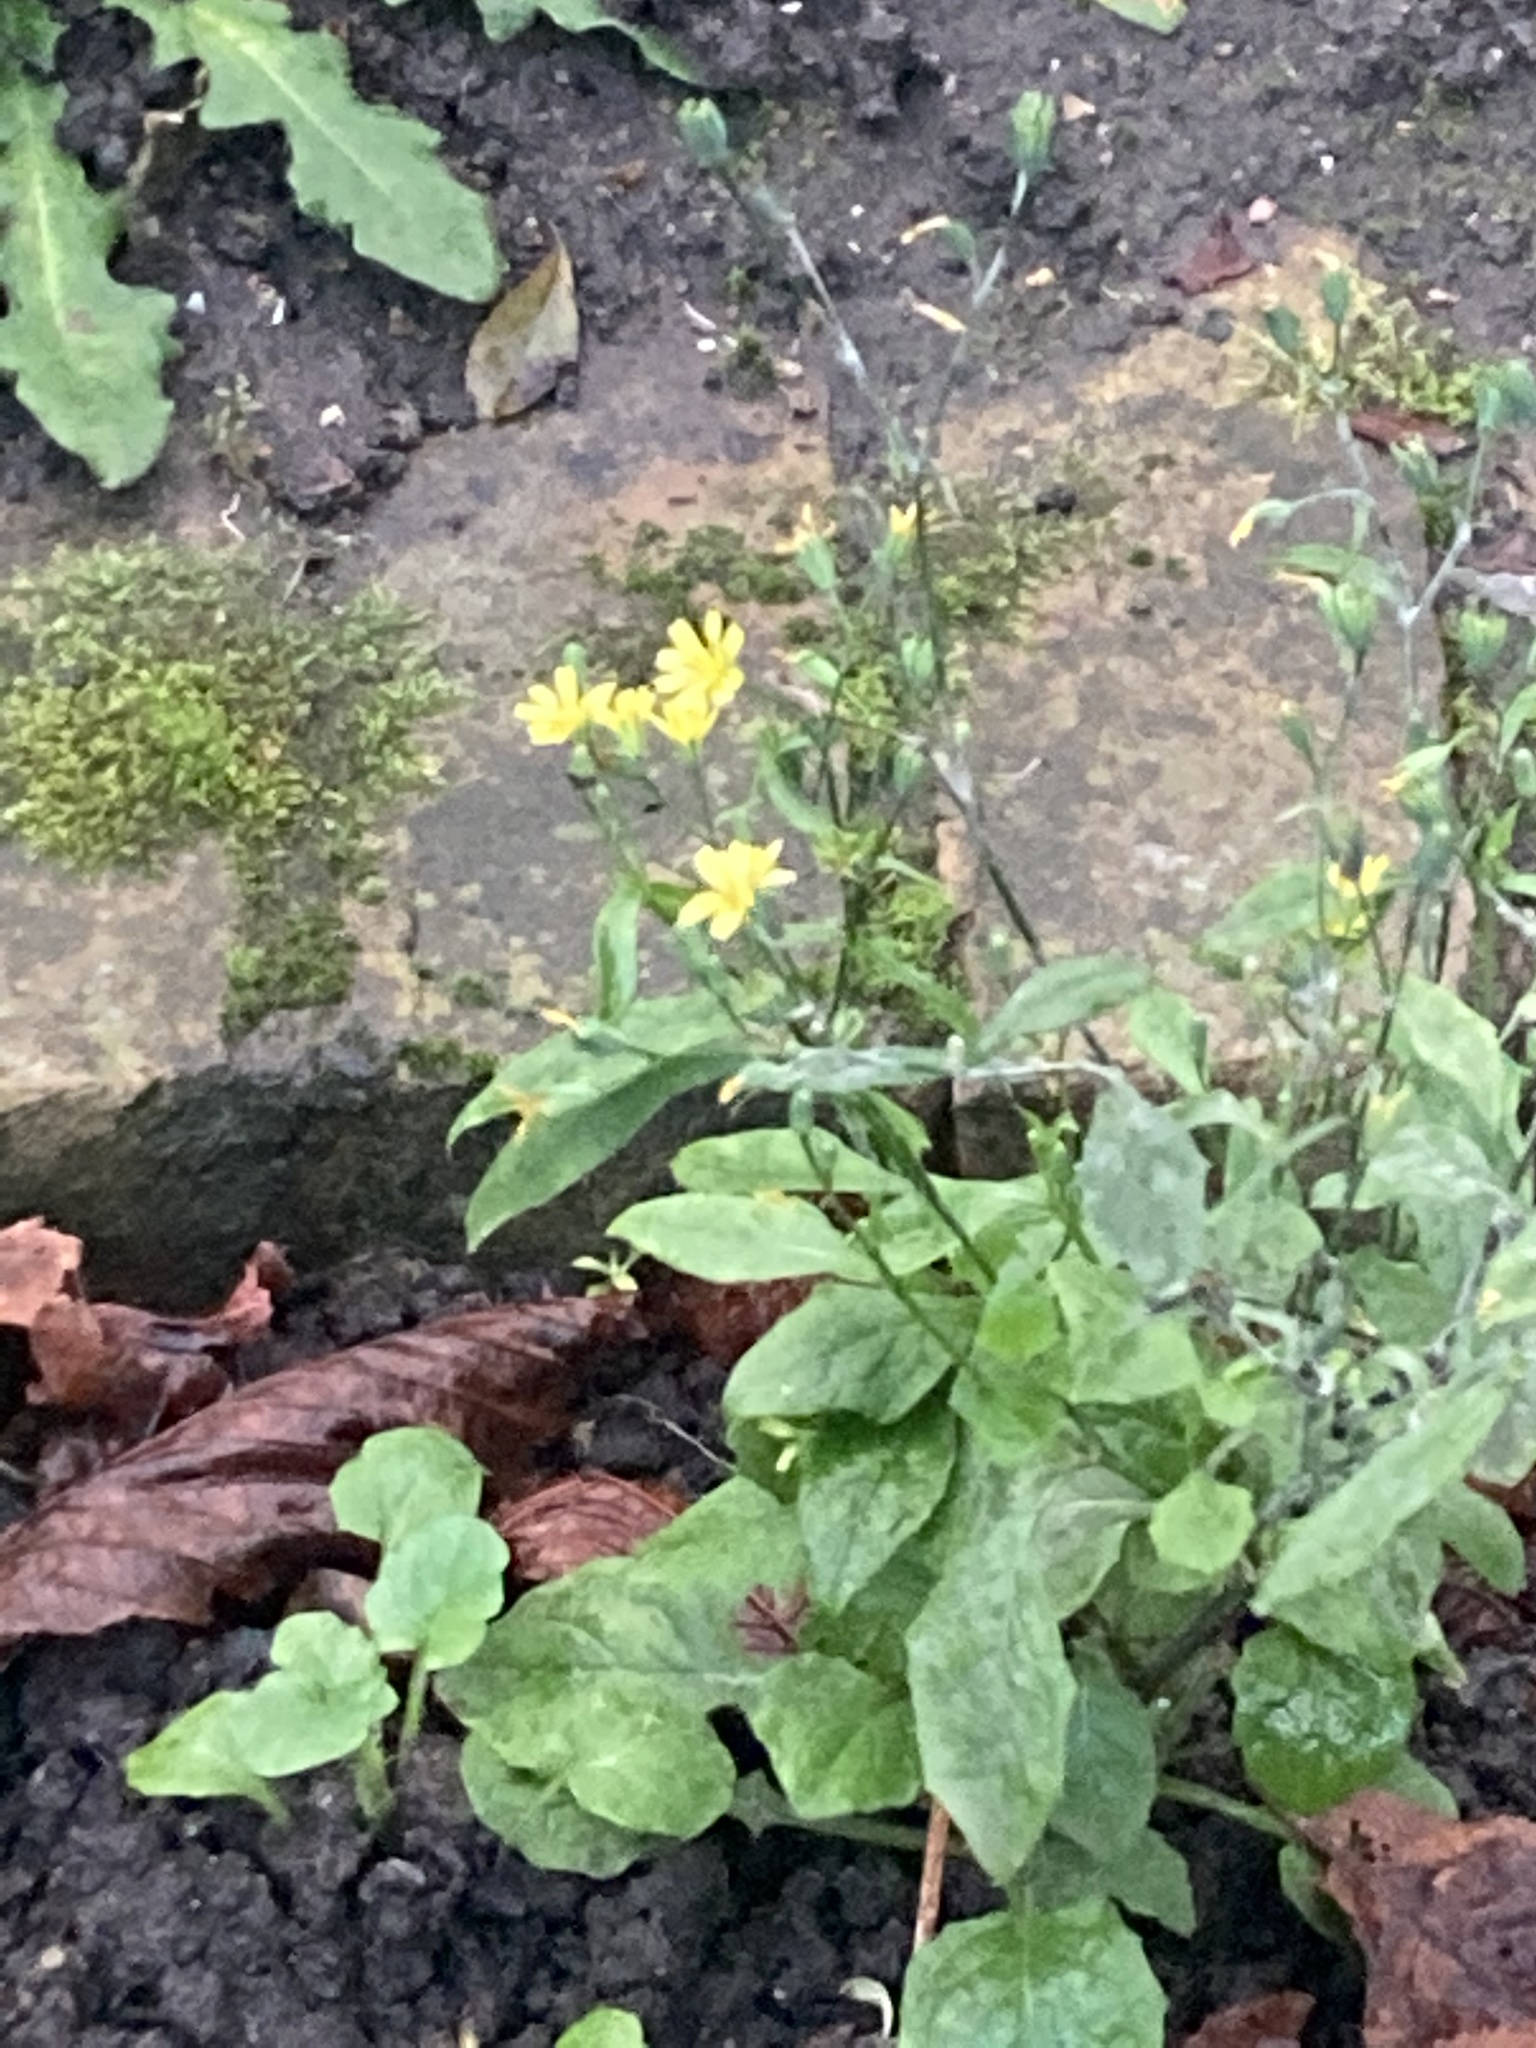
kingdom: Plantae
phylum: Tracheophyta
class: Magnoliopsida
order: Asterales
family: Asteraceae
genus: Lapsana
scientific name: Lapsana communis
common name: Nipplewort
